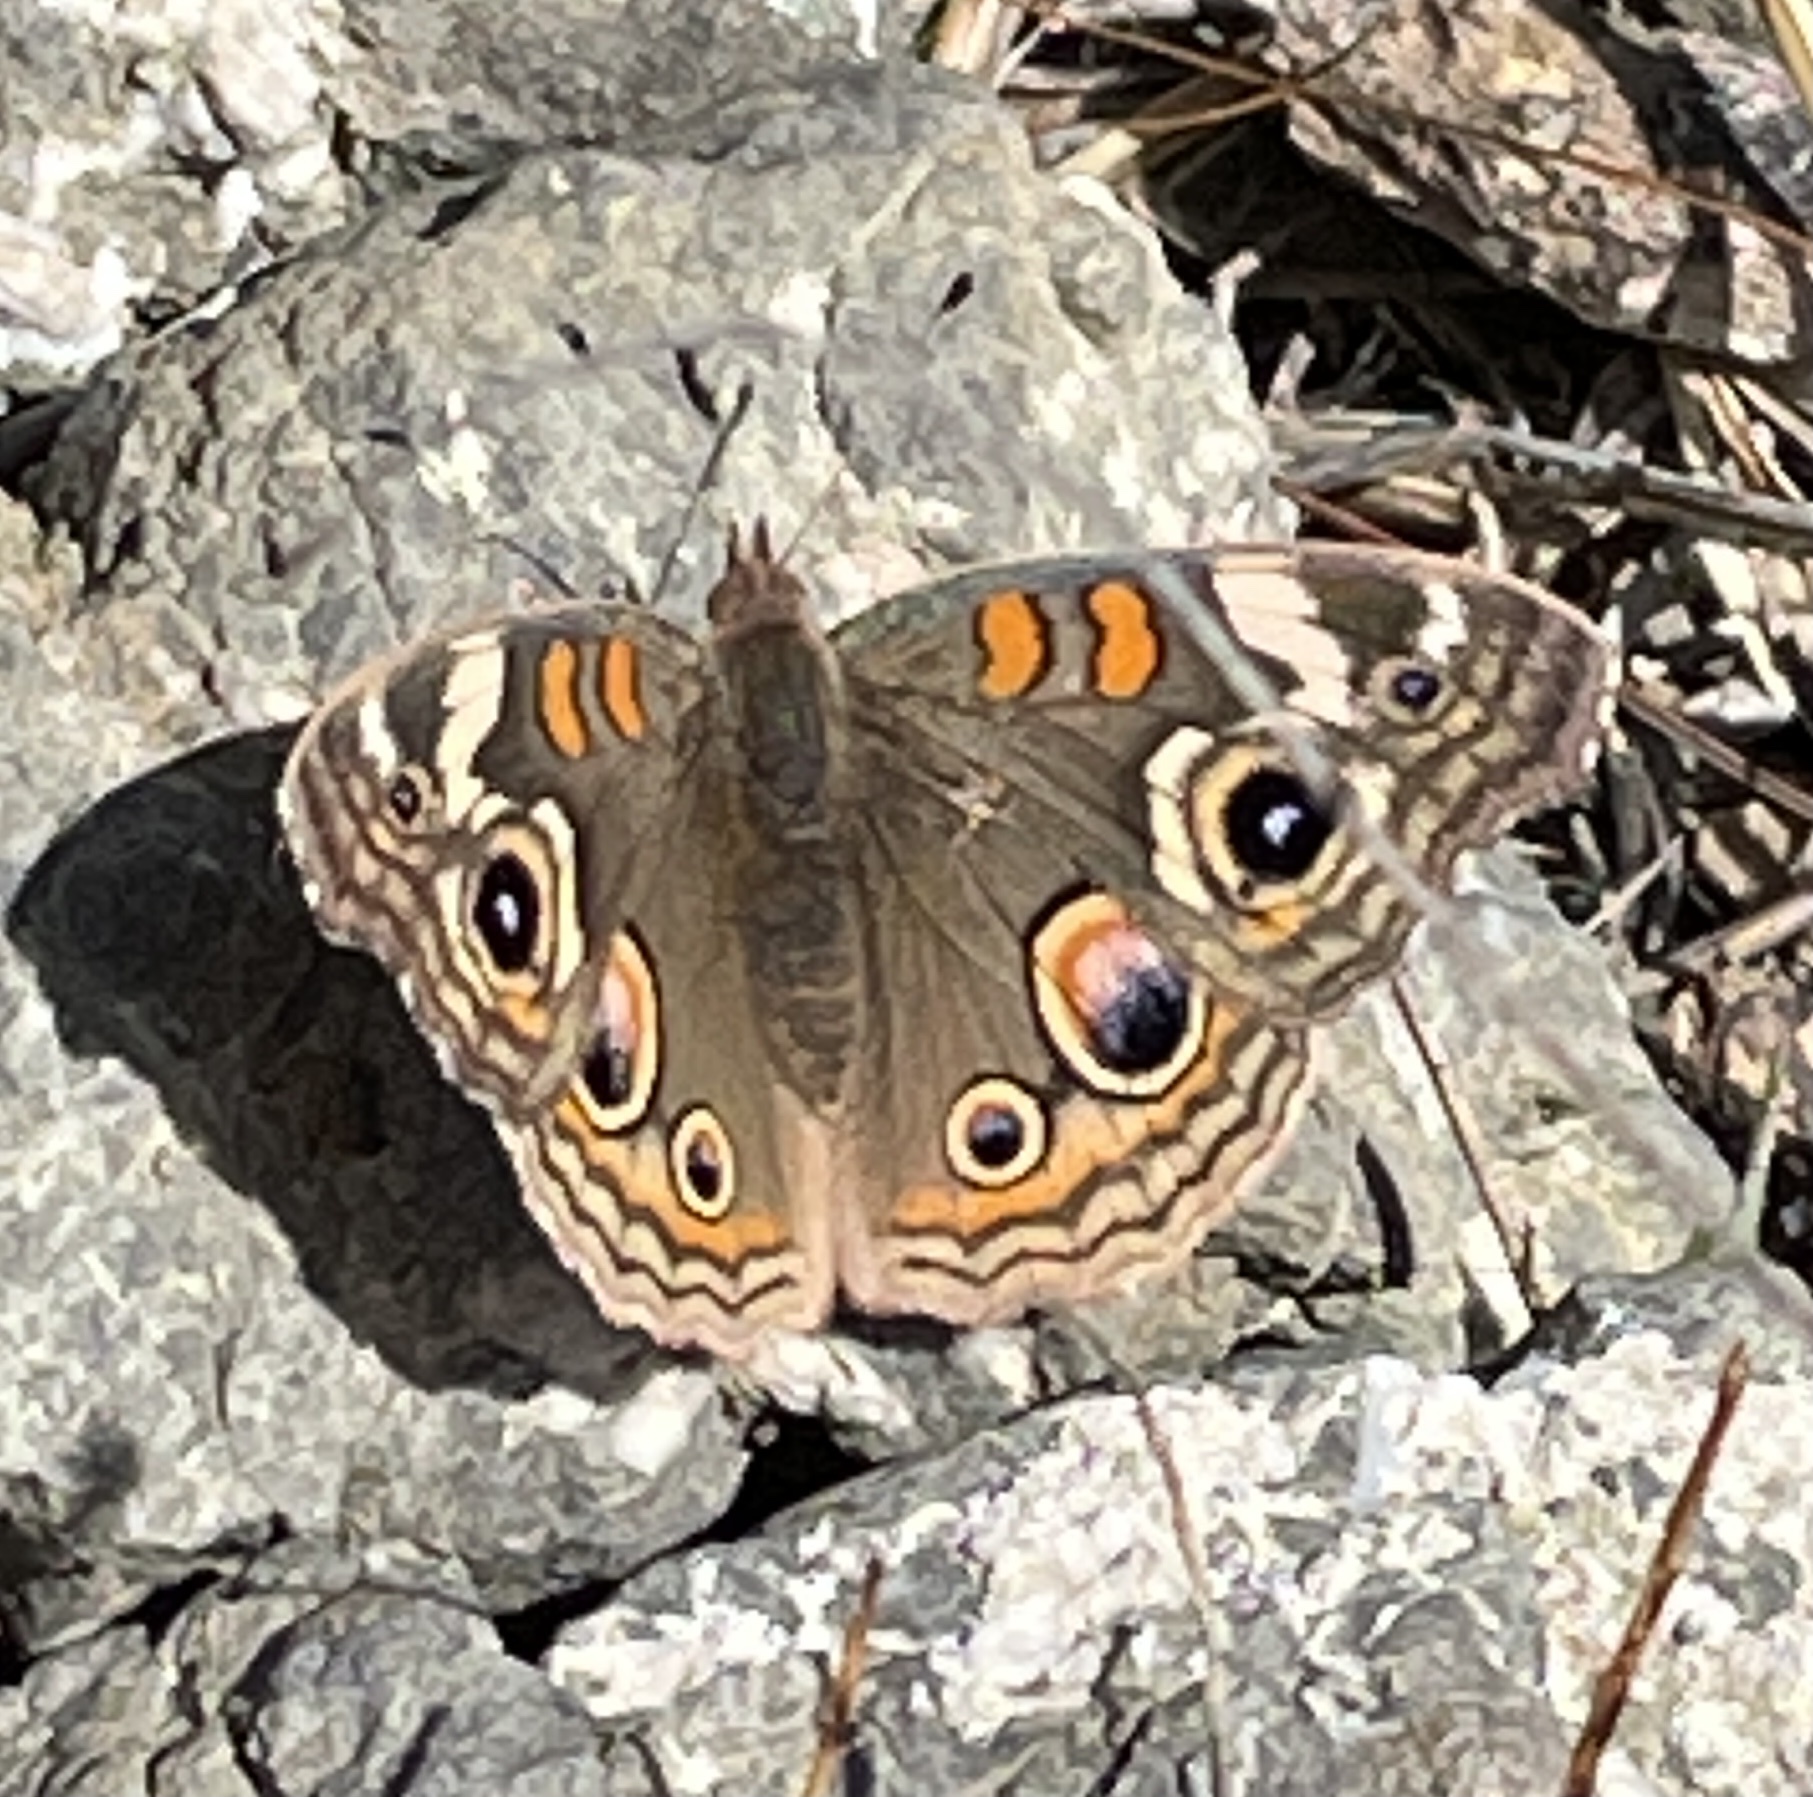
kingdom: Animalia
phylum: Arthropoda
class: Insecta
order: Lepidoptera
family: Nymphalidae
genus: Junonia
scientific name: Junonia grisea
